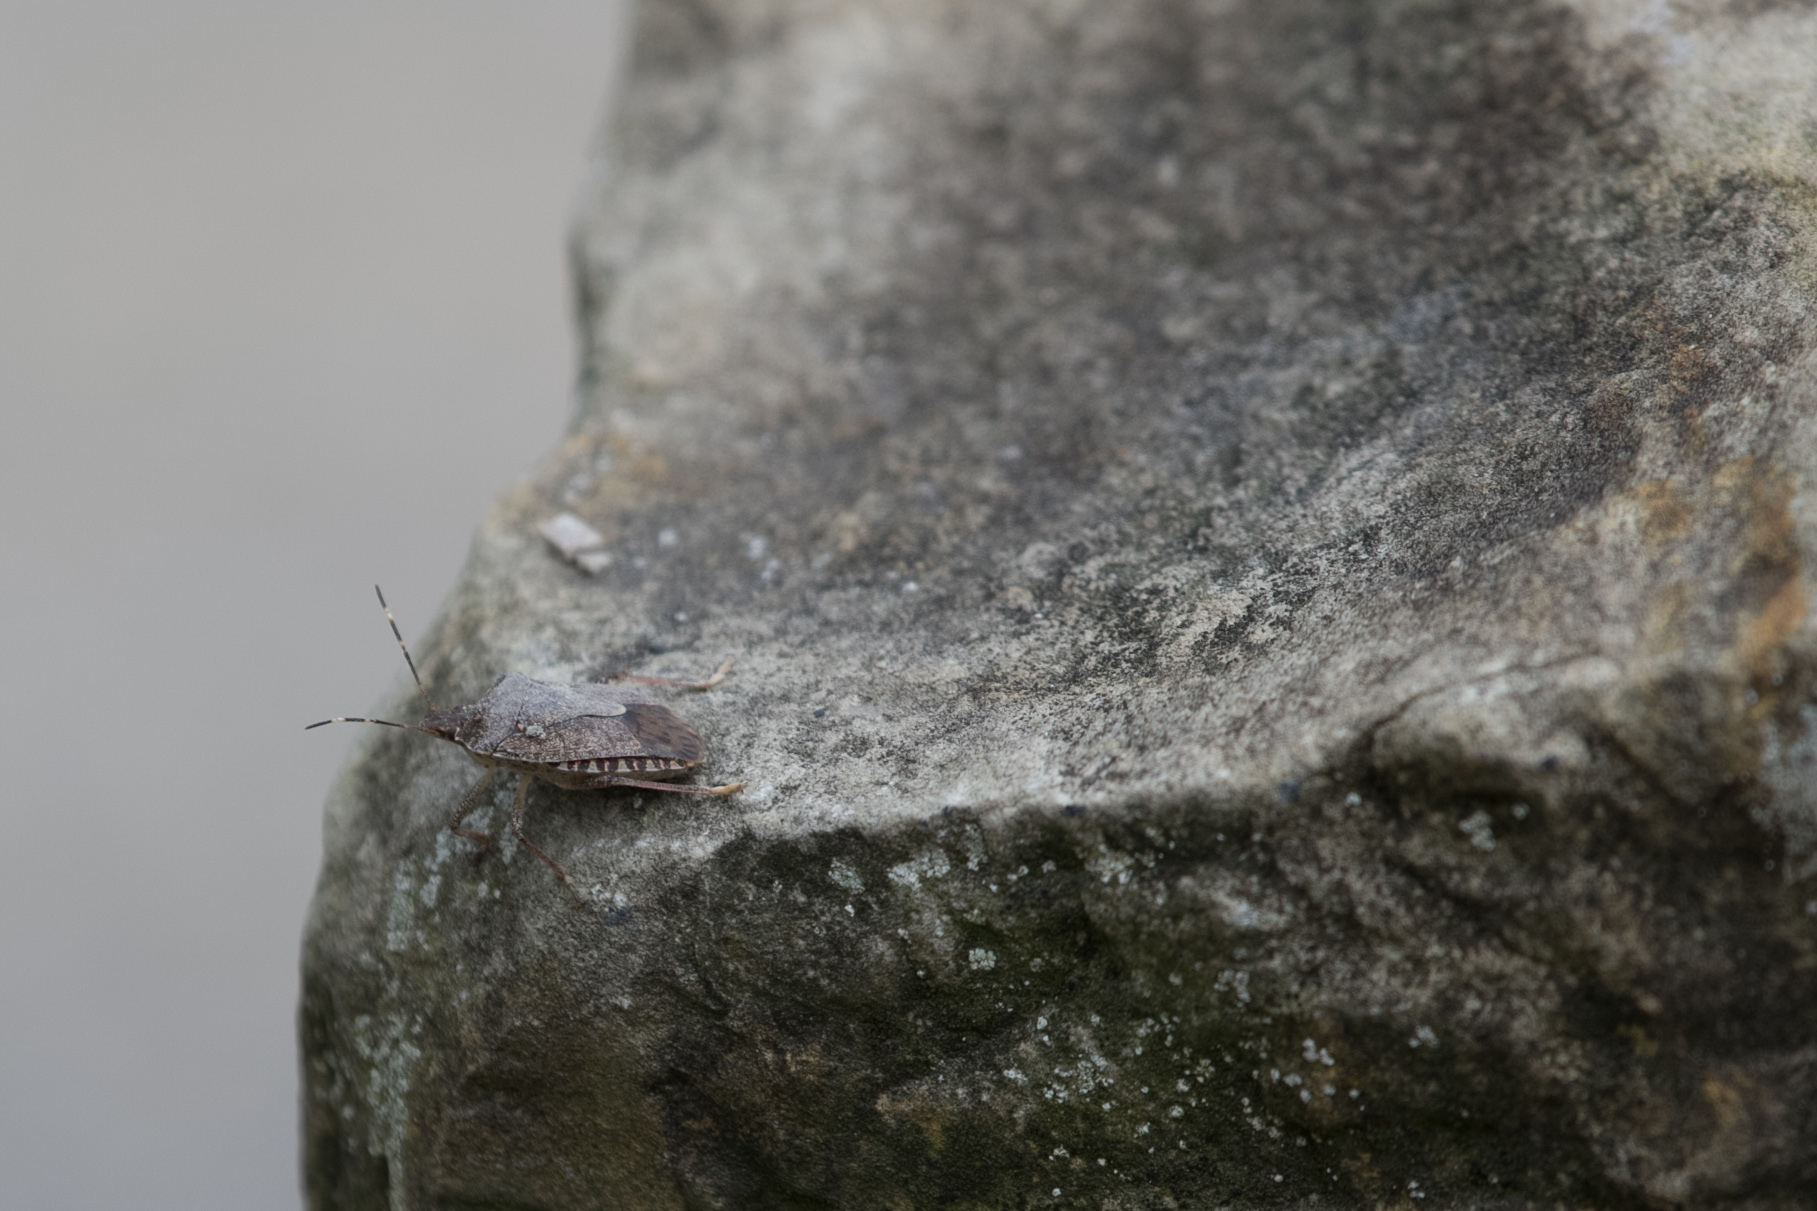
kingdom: Animalia
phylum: Arthropoda
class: Insecta
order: Hemiptera
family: Pentatomidae
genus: Halyomorpha
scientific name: Halyomorpha halys
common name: Brown marmorated stink bug
